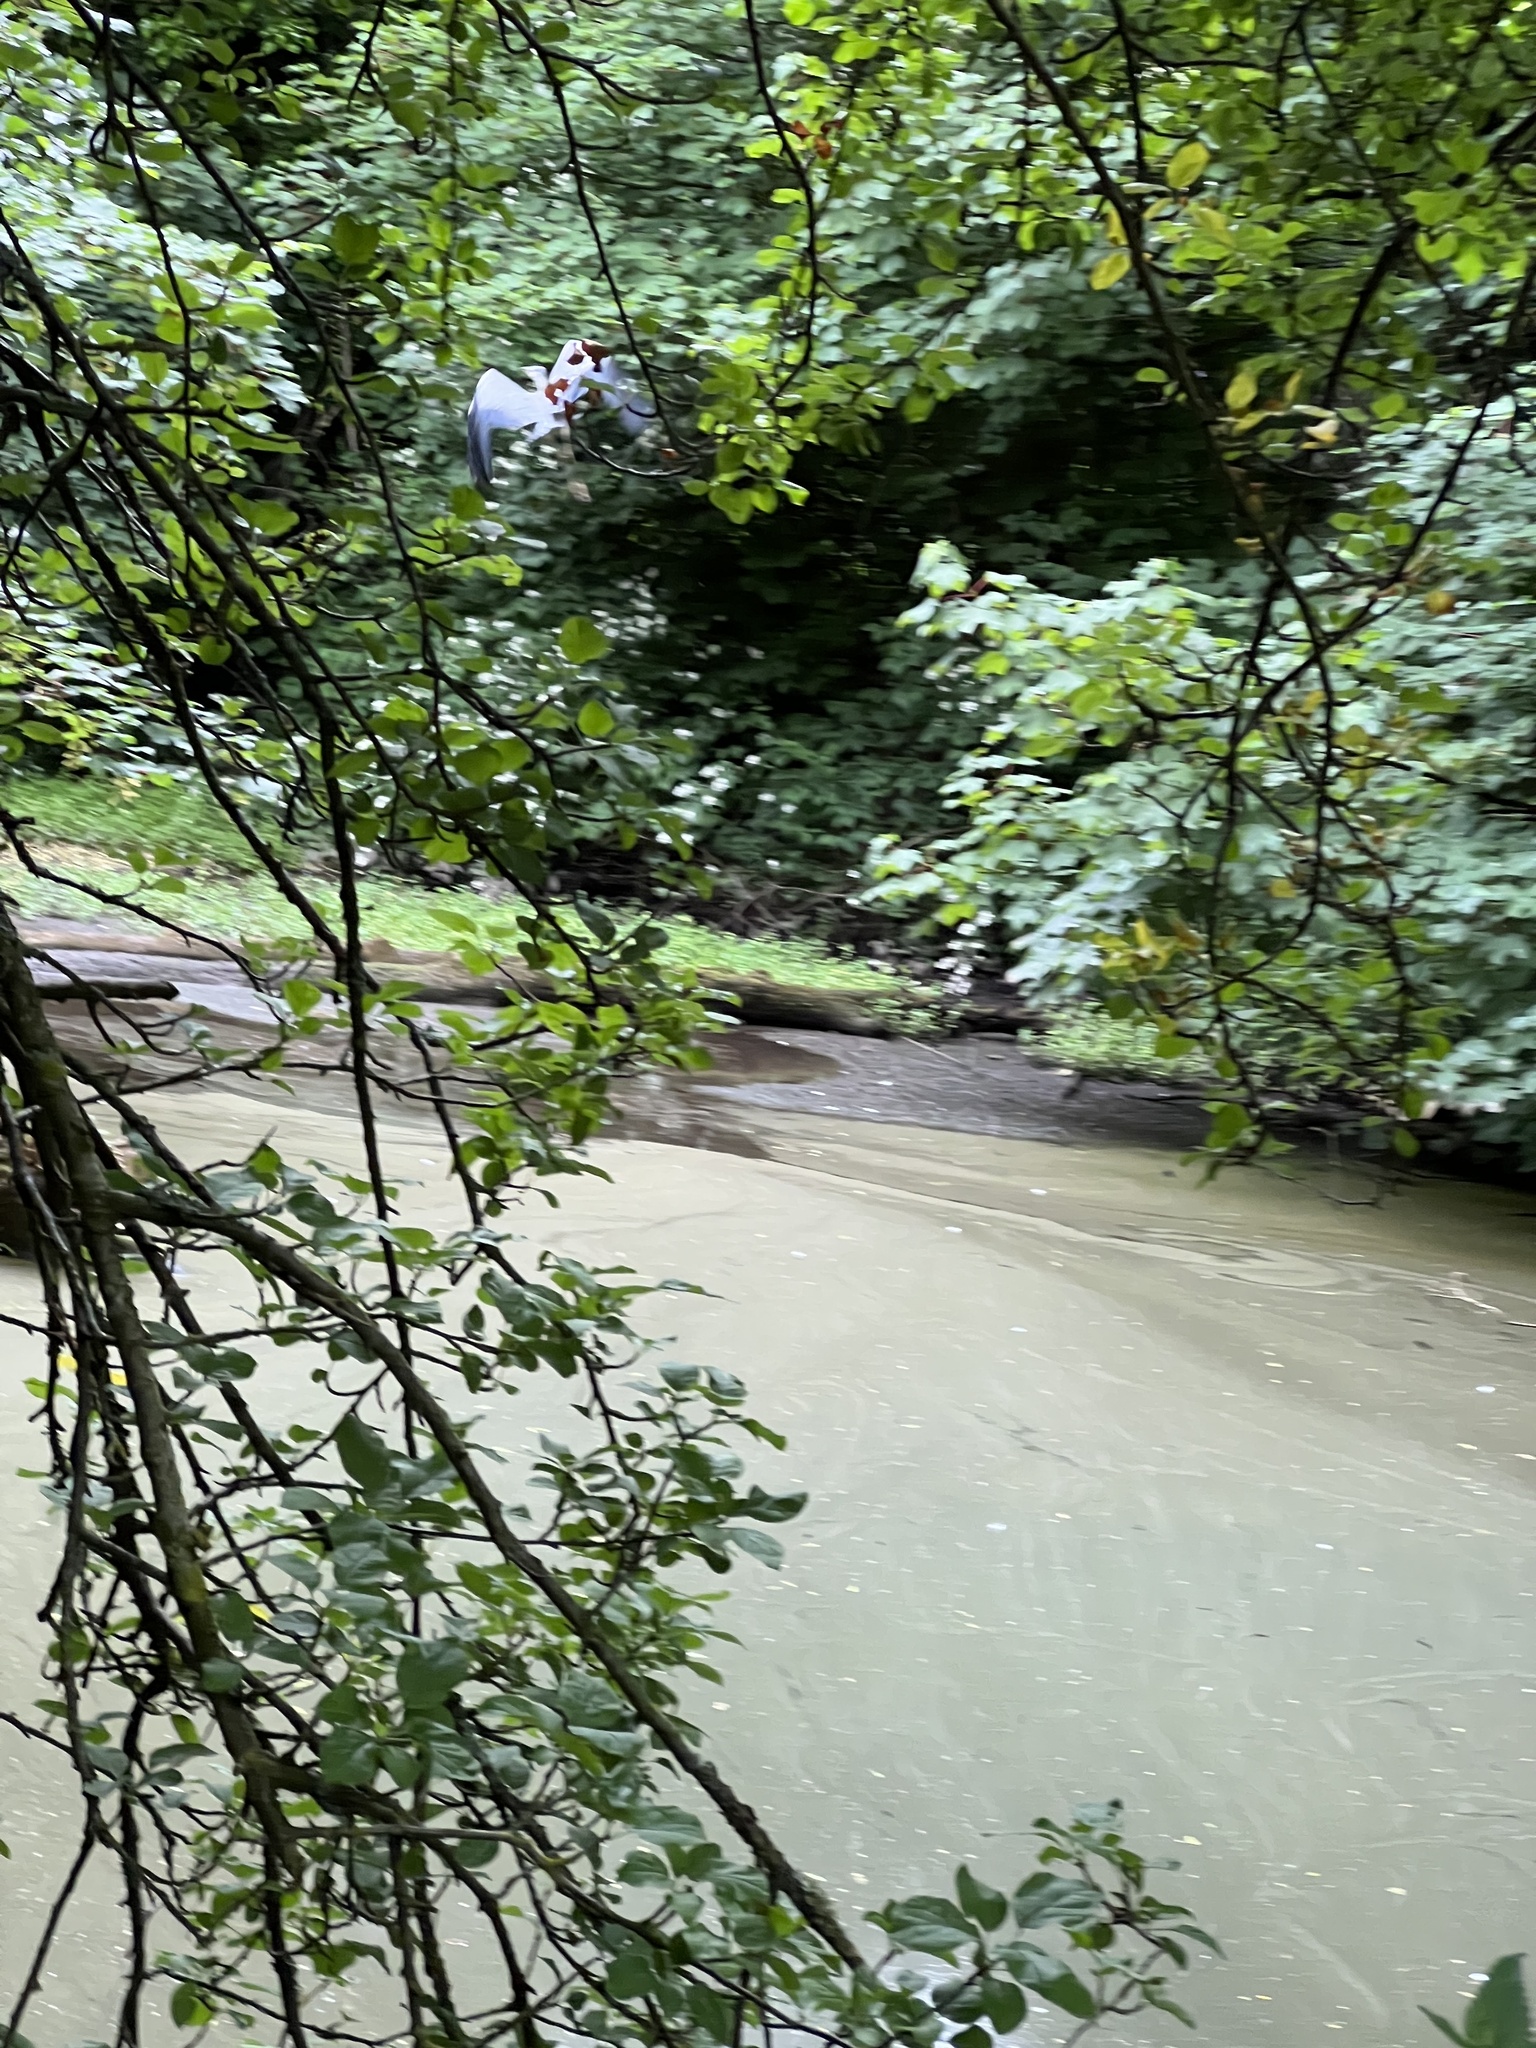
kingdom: Animalia
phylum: Chordata
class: Aves
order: Pelecaniformes
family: Ardeidae
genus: Ardea
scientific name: Ardea cinerea
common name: Grey heron
